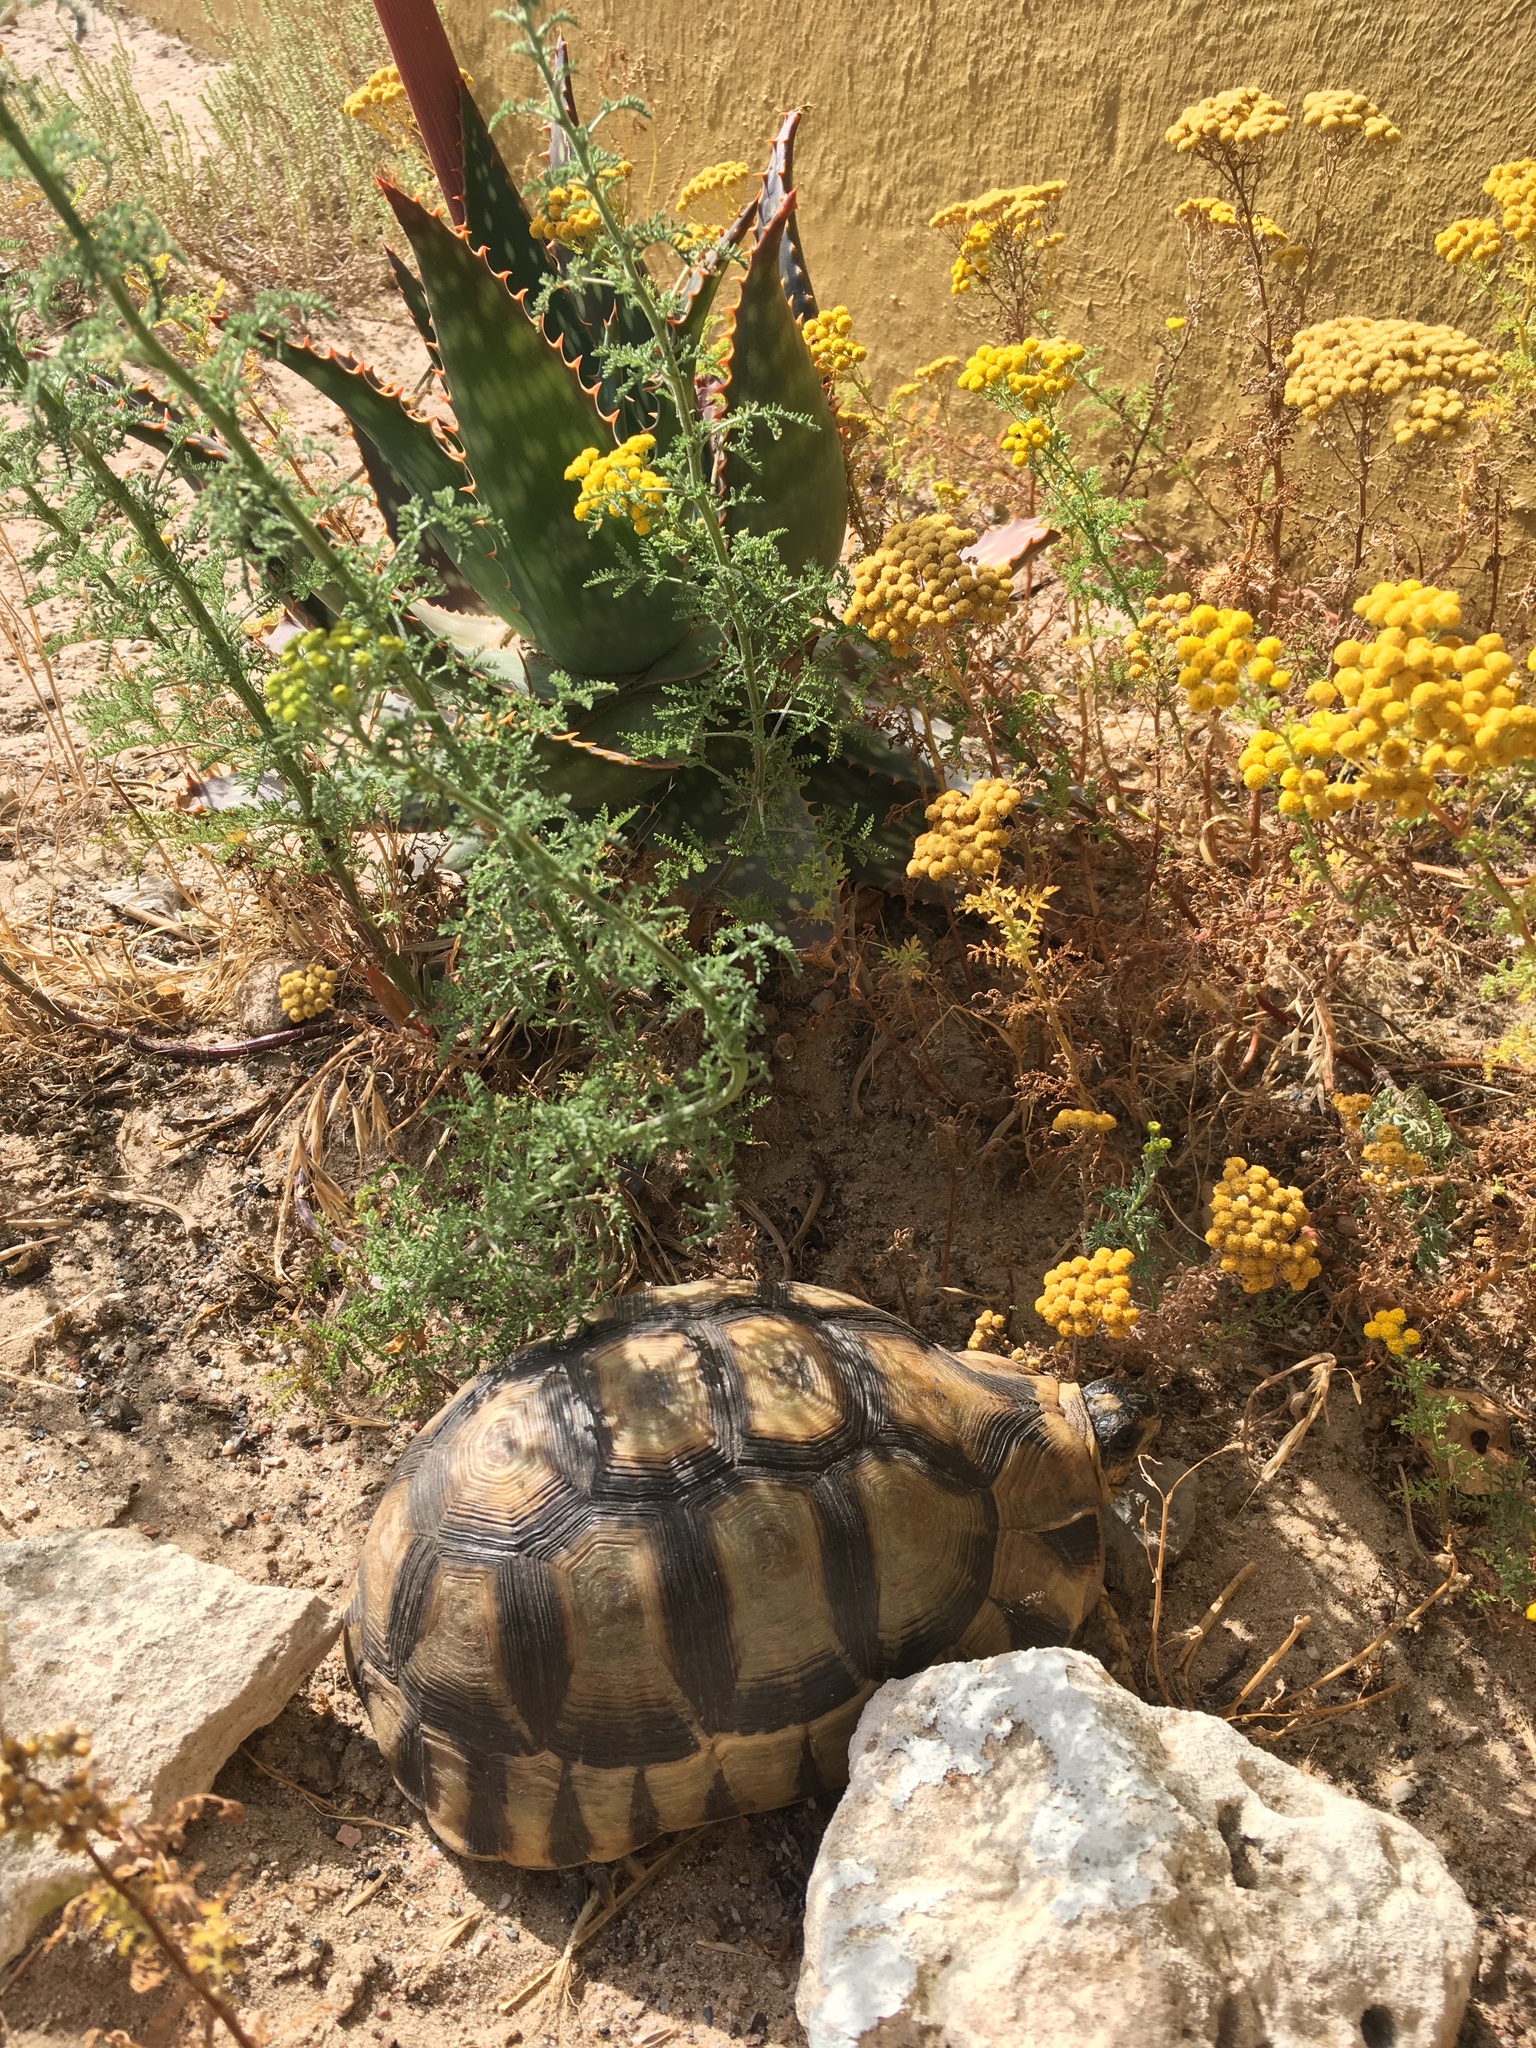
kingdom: Animalia
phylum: Chordata
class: Testudines
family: Testudinidae
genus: Chersina
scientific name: Chersina angulata
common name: South african bowsprit tortoise
